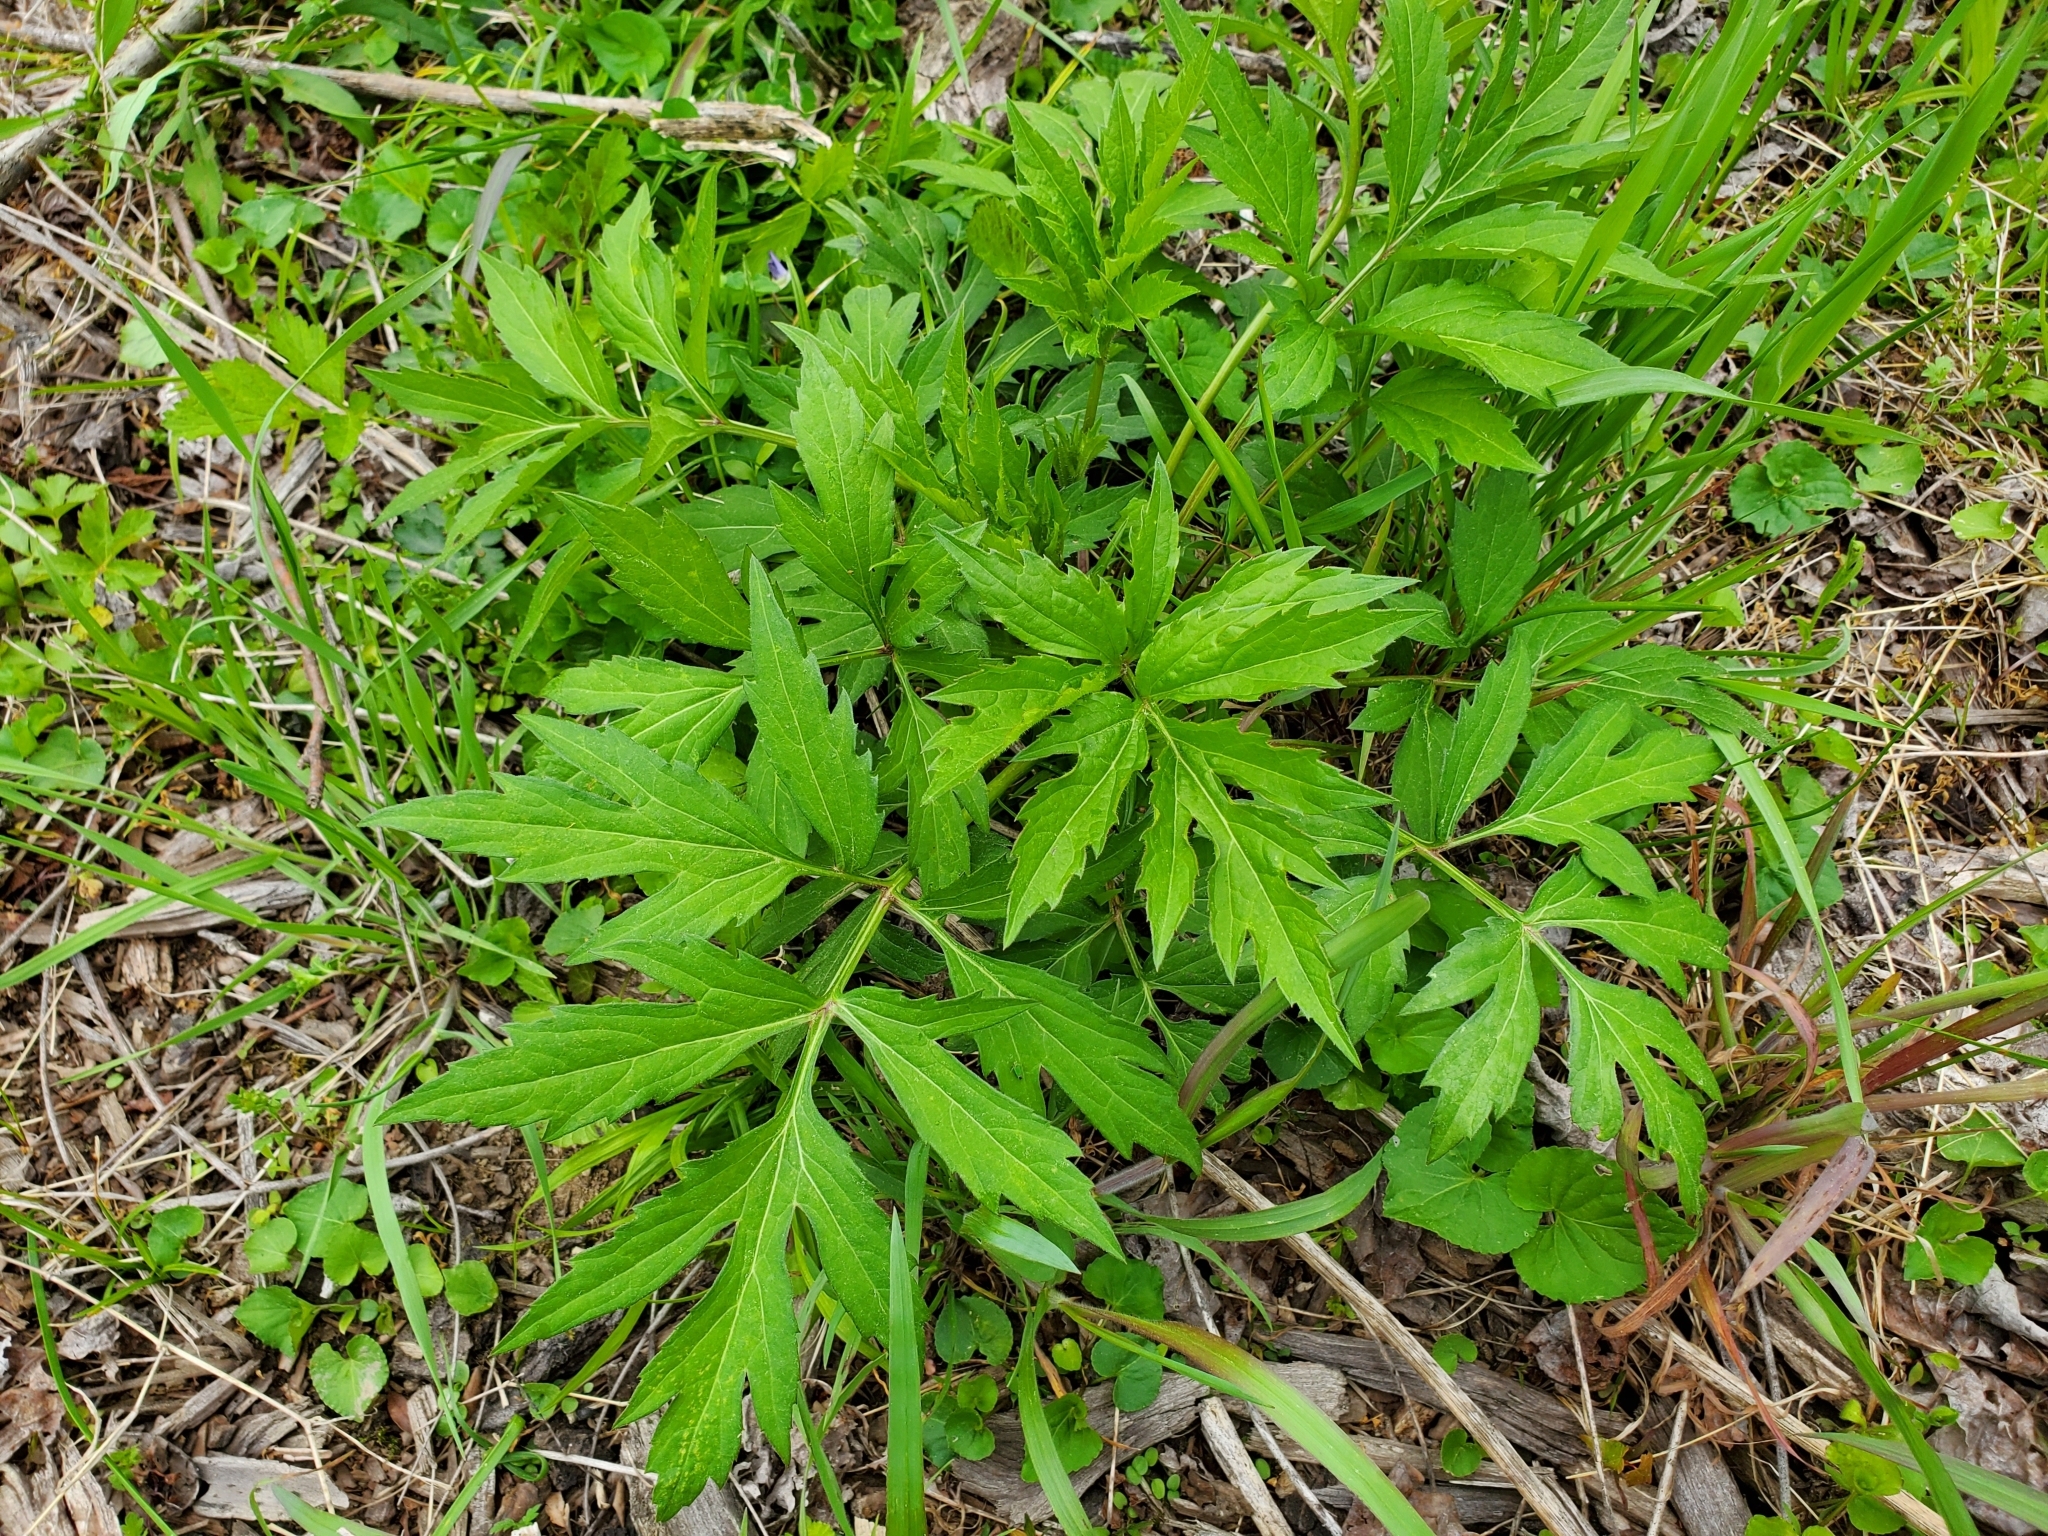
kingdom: Plantae
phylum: Tracheophyta
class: Magnoliopsida
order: Asterales
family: Asteraceae
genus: Rudbeckia
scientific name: Rudbeckia laciniata
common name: Coneflower
